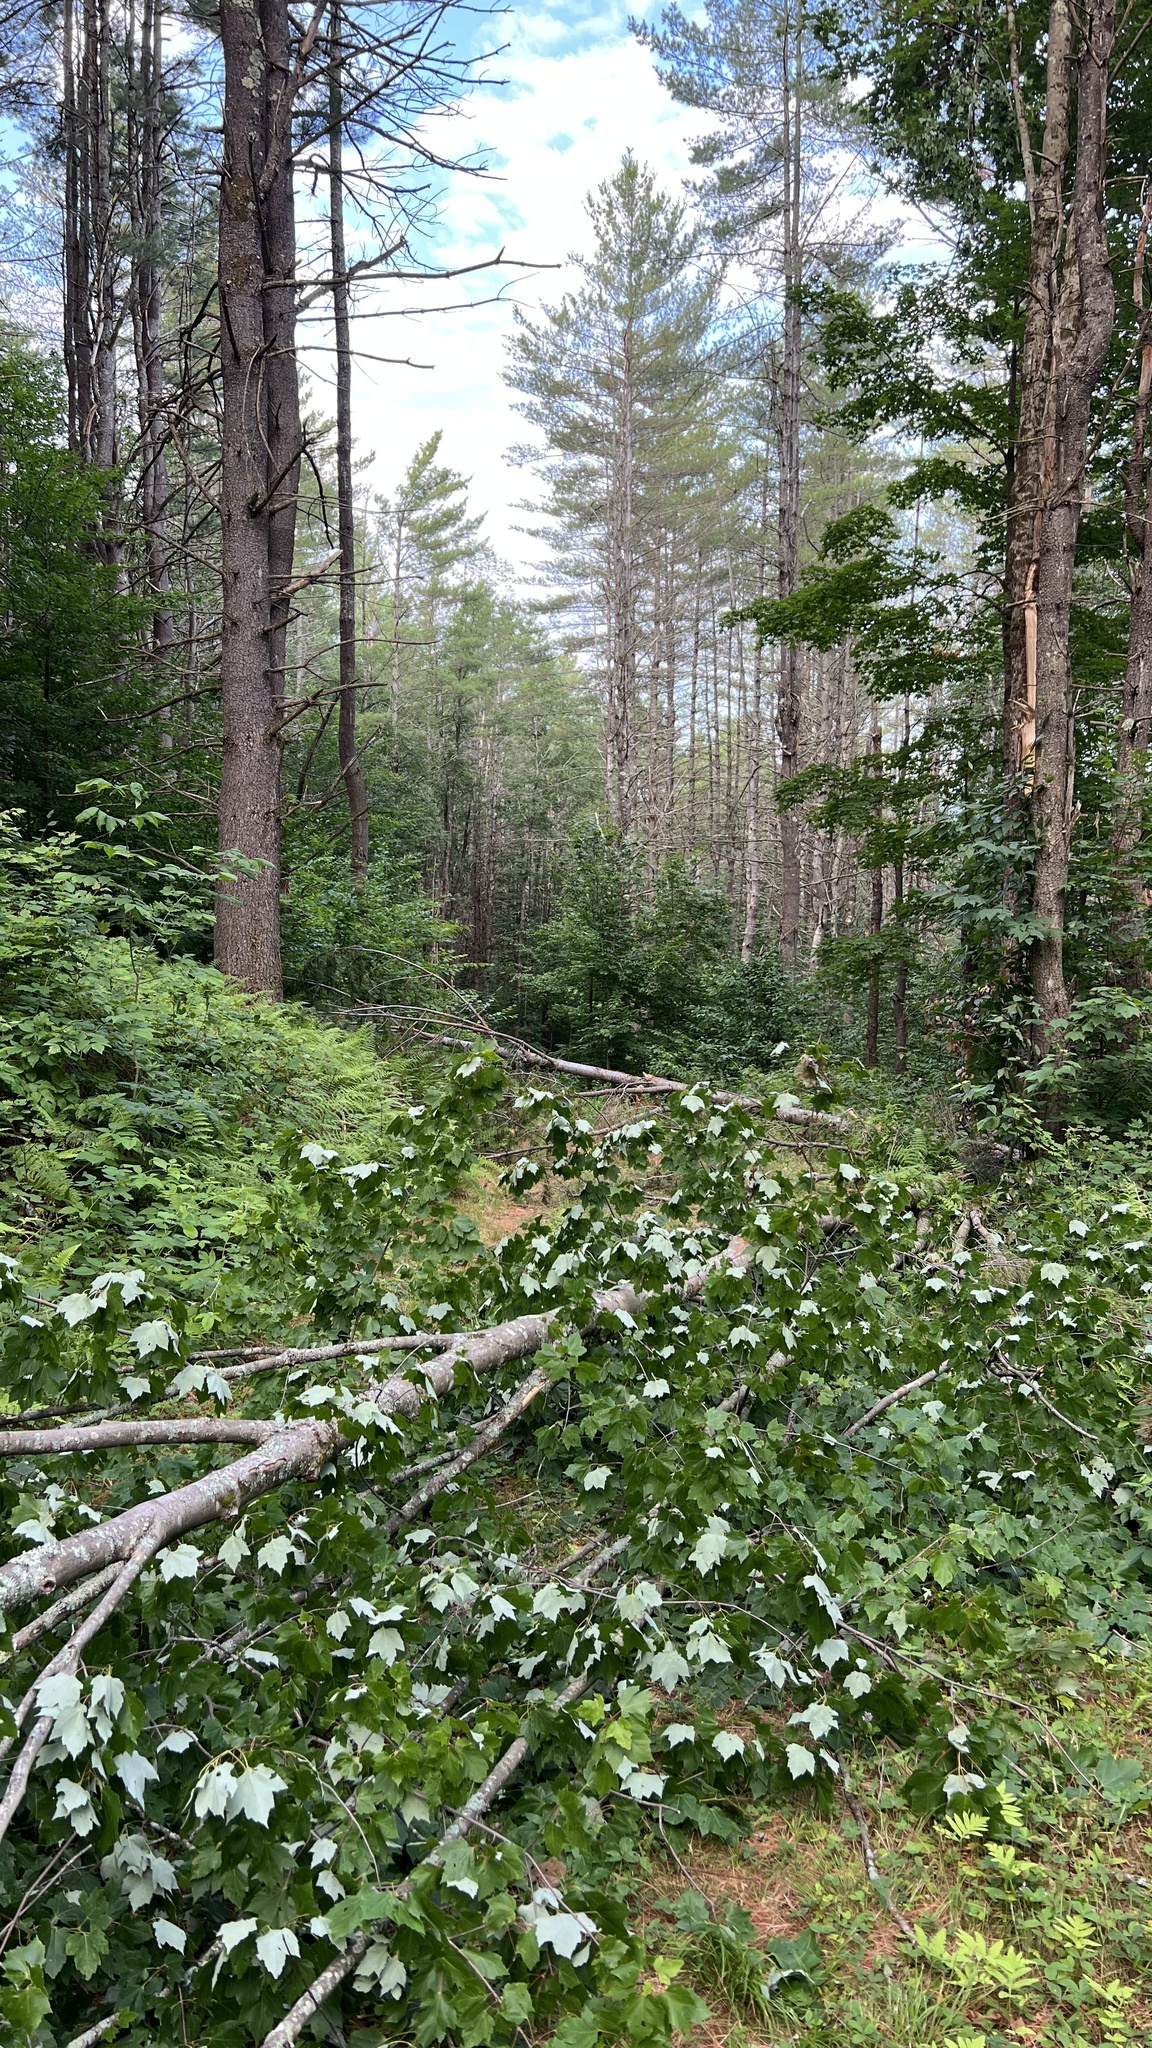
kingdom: Plantae
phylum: Tracheophyta
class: Magnoliopsida
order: Sapindales
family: Sapindaceae
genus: Acer
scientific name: Acer rubrum
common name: Red maple
